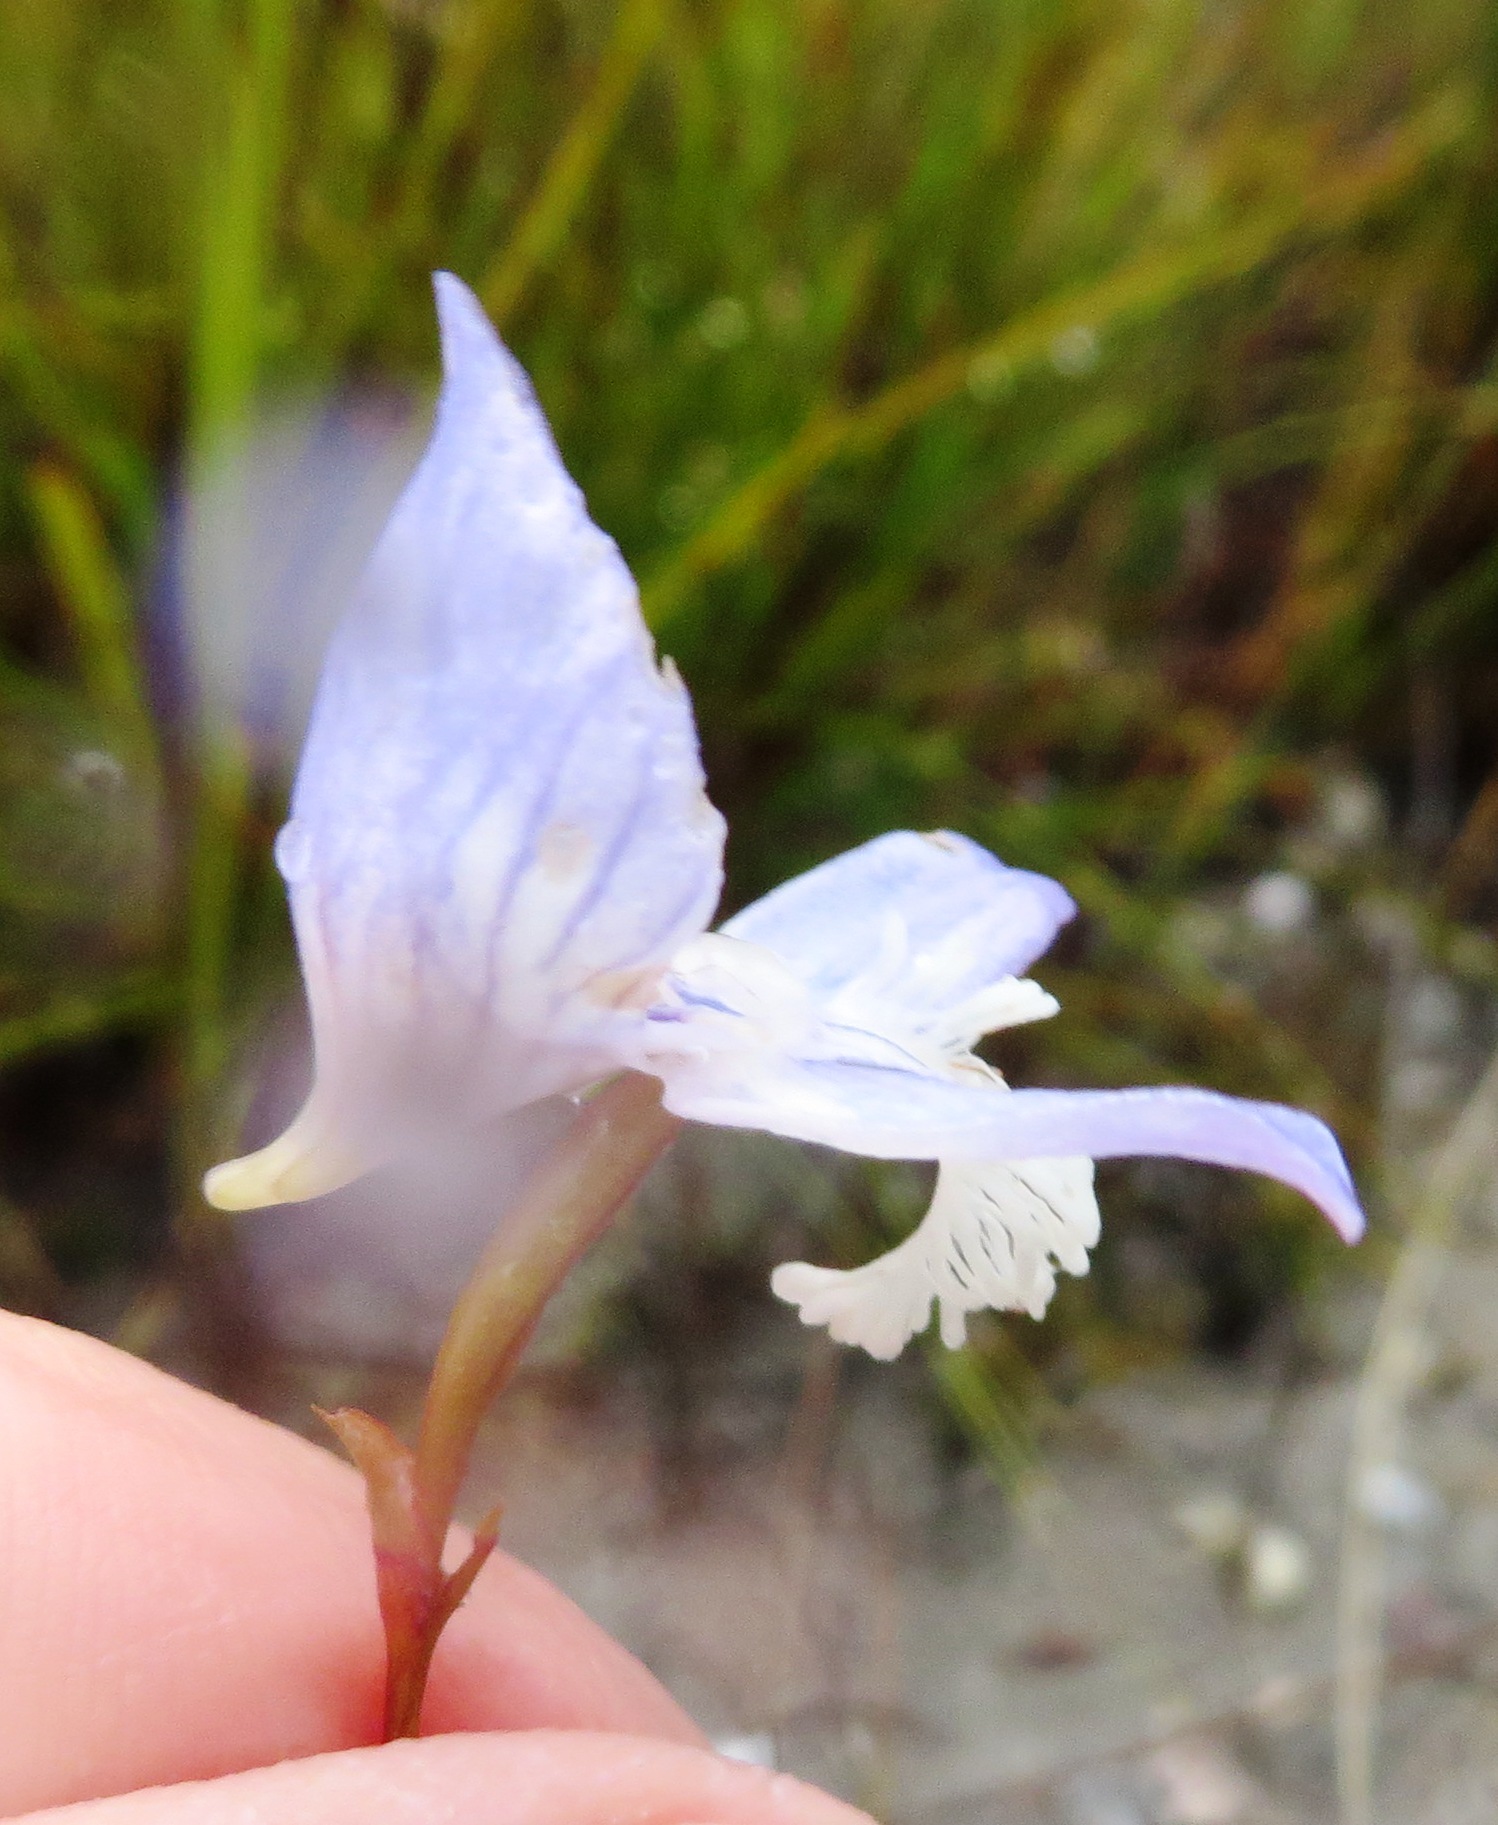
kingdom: Plantae
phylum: Tracheophyta
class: Liliopsida
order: Asparagales
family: Orchidaceae
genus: Disa
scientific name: Disa venusta
